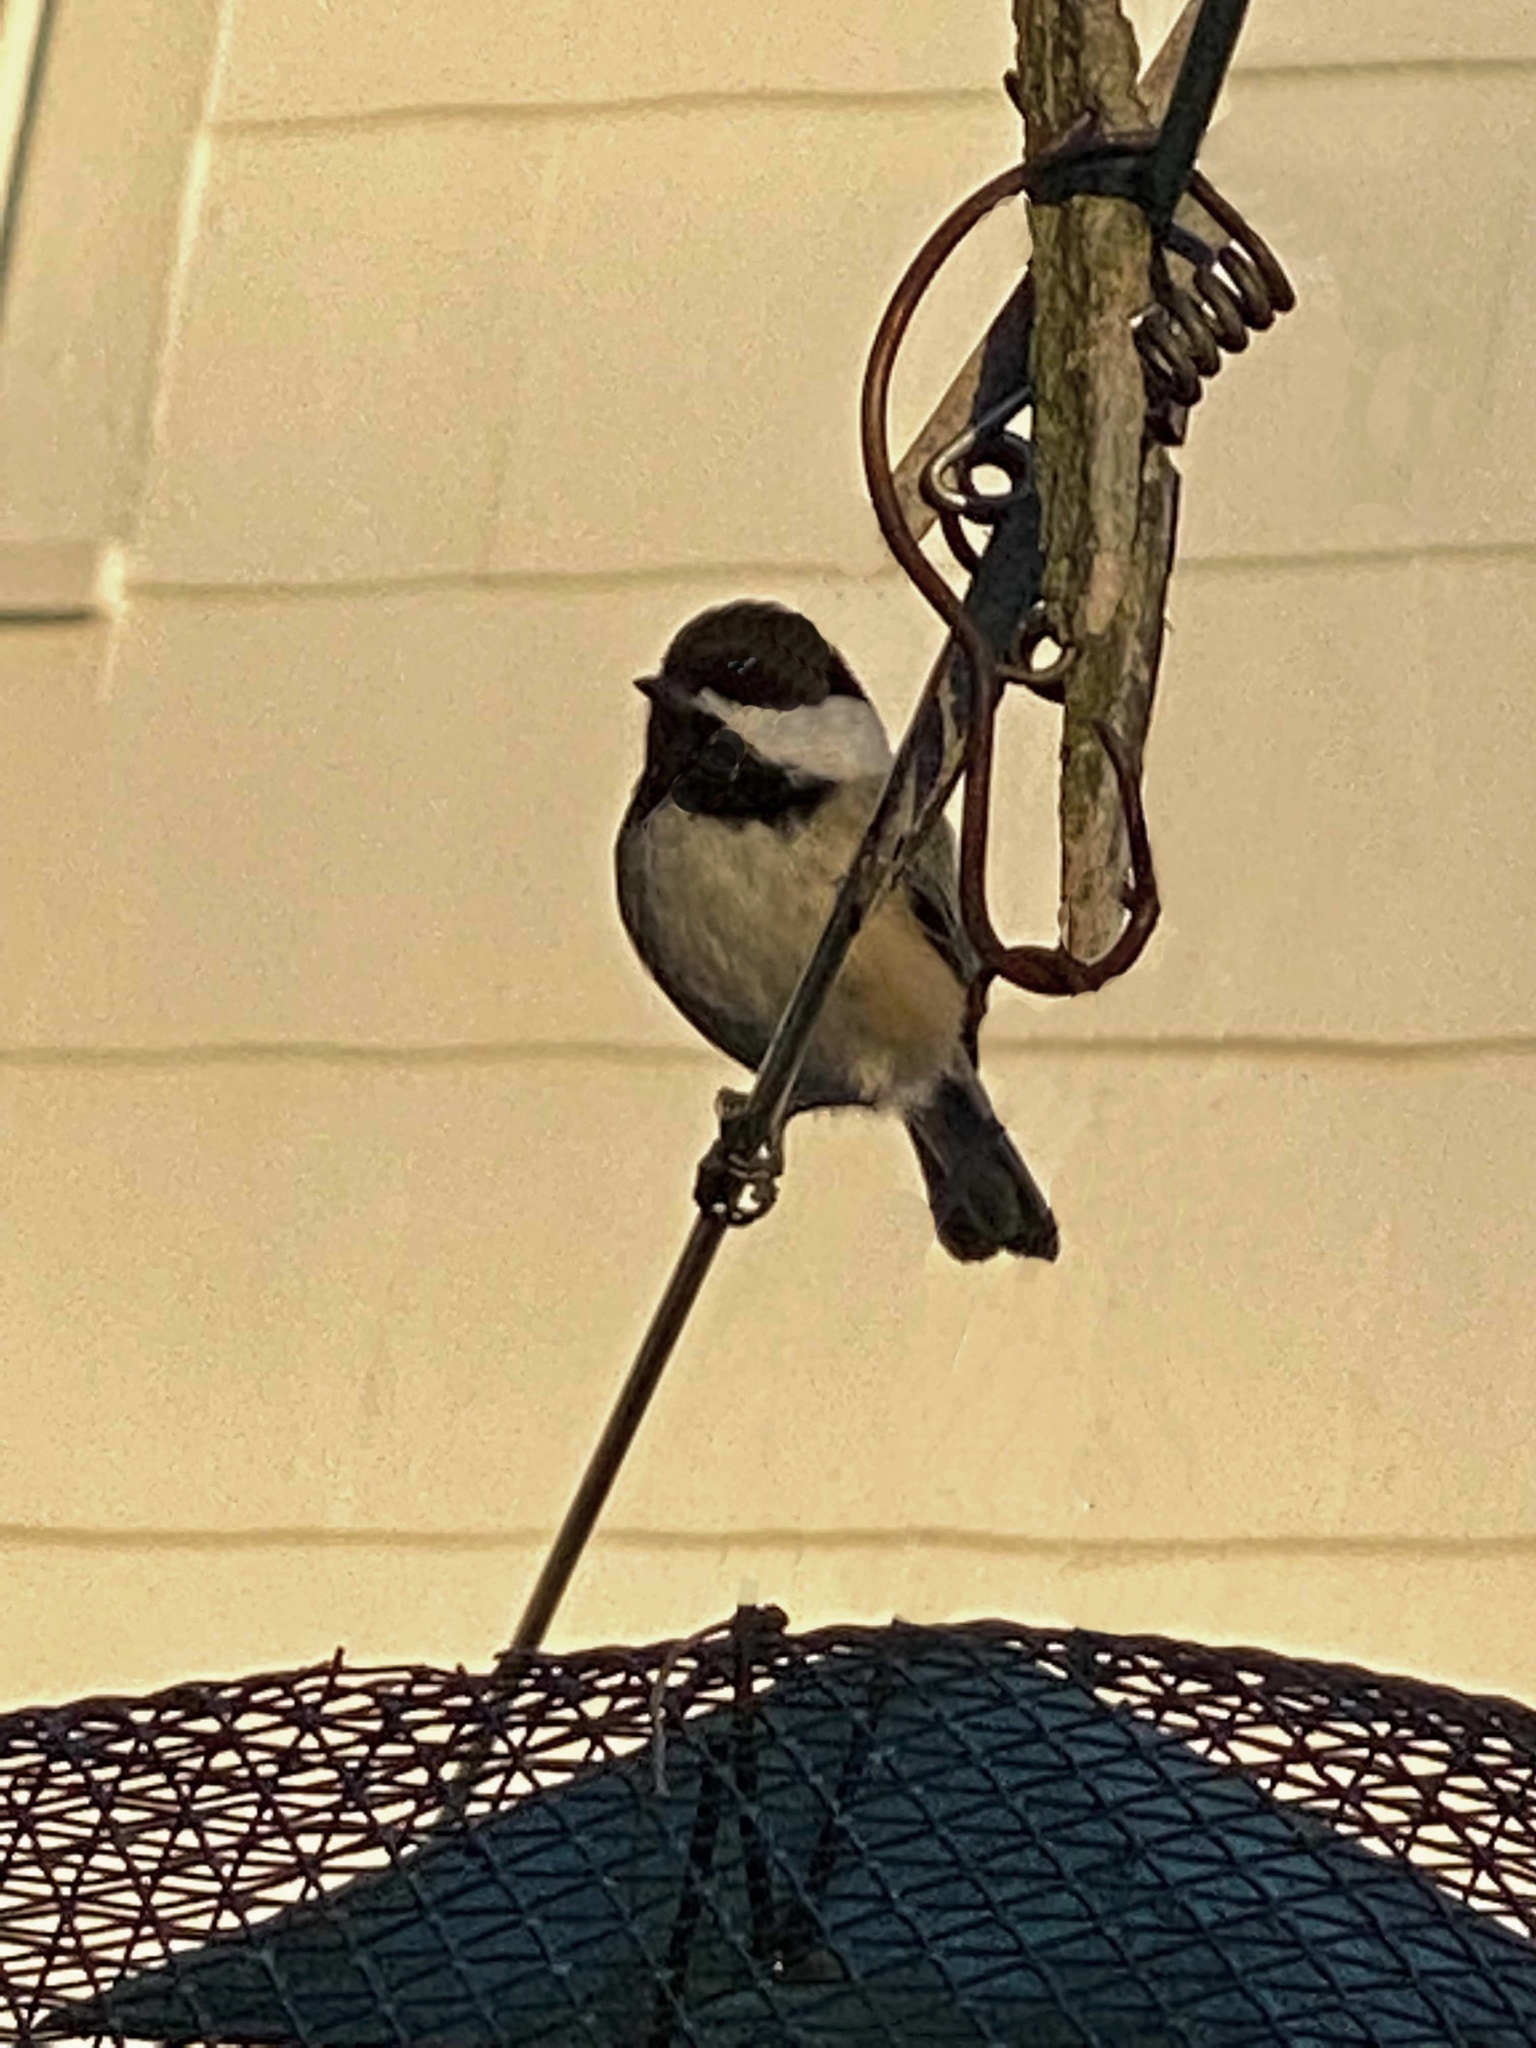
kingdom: Animalia
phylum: Chordata
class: Aves
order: Passeriformes
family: Paridae
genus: Poecile
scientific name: Poecile atricapillus
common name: Black-capped chickadee
